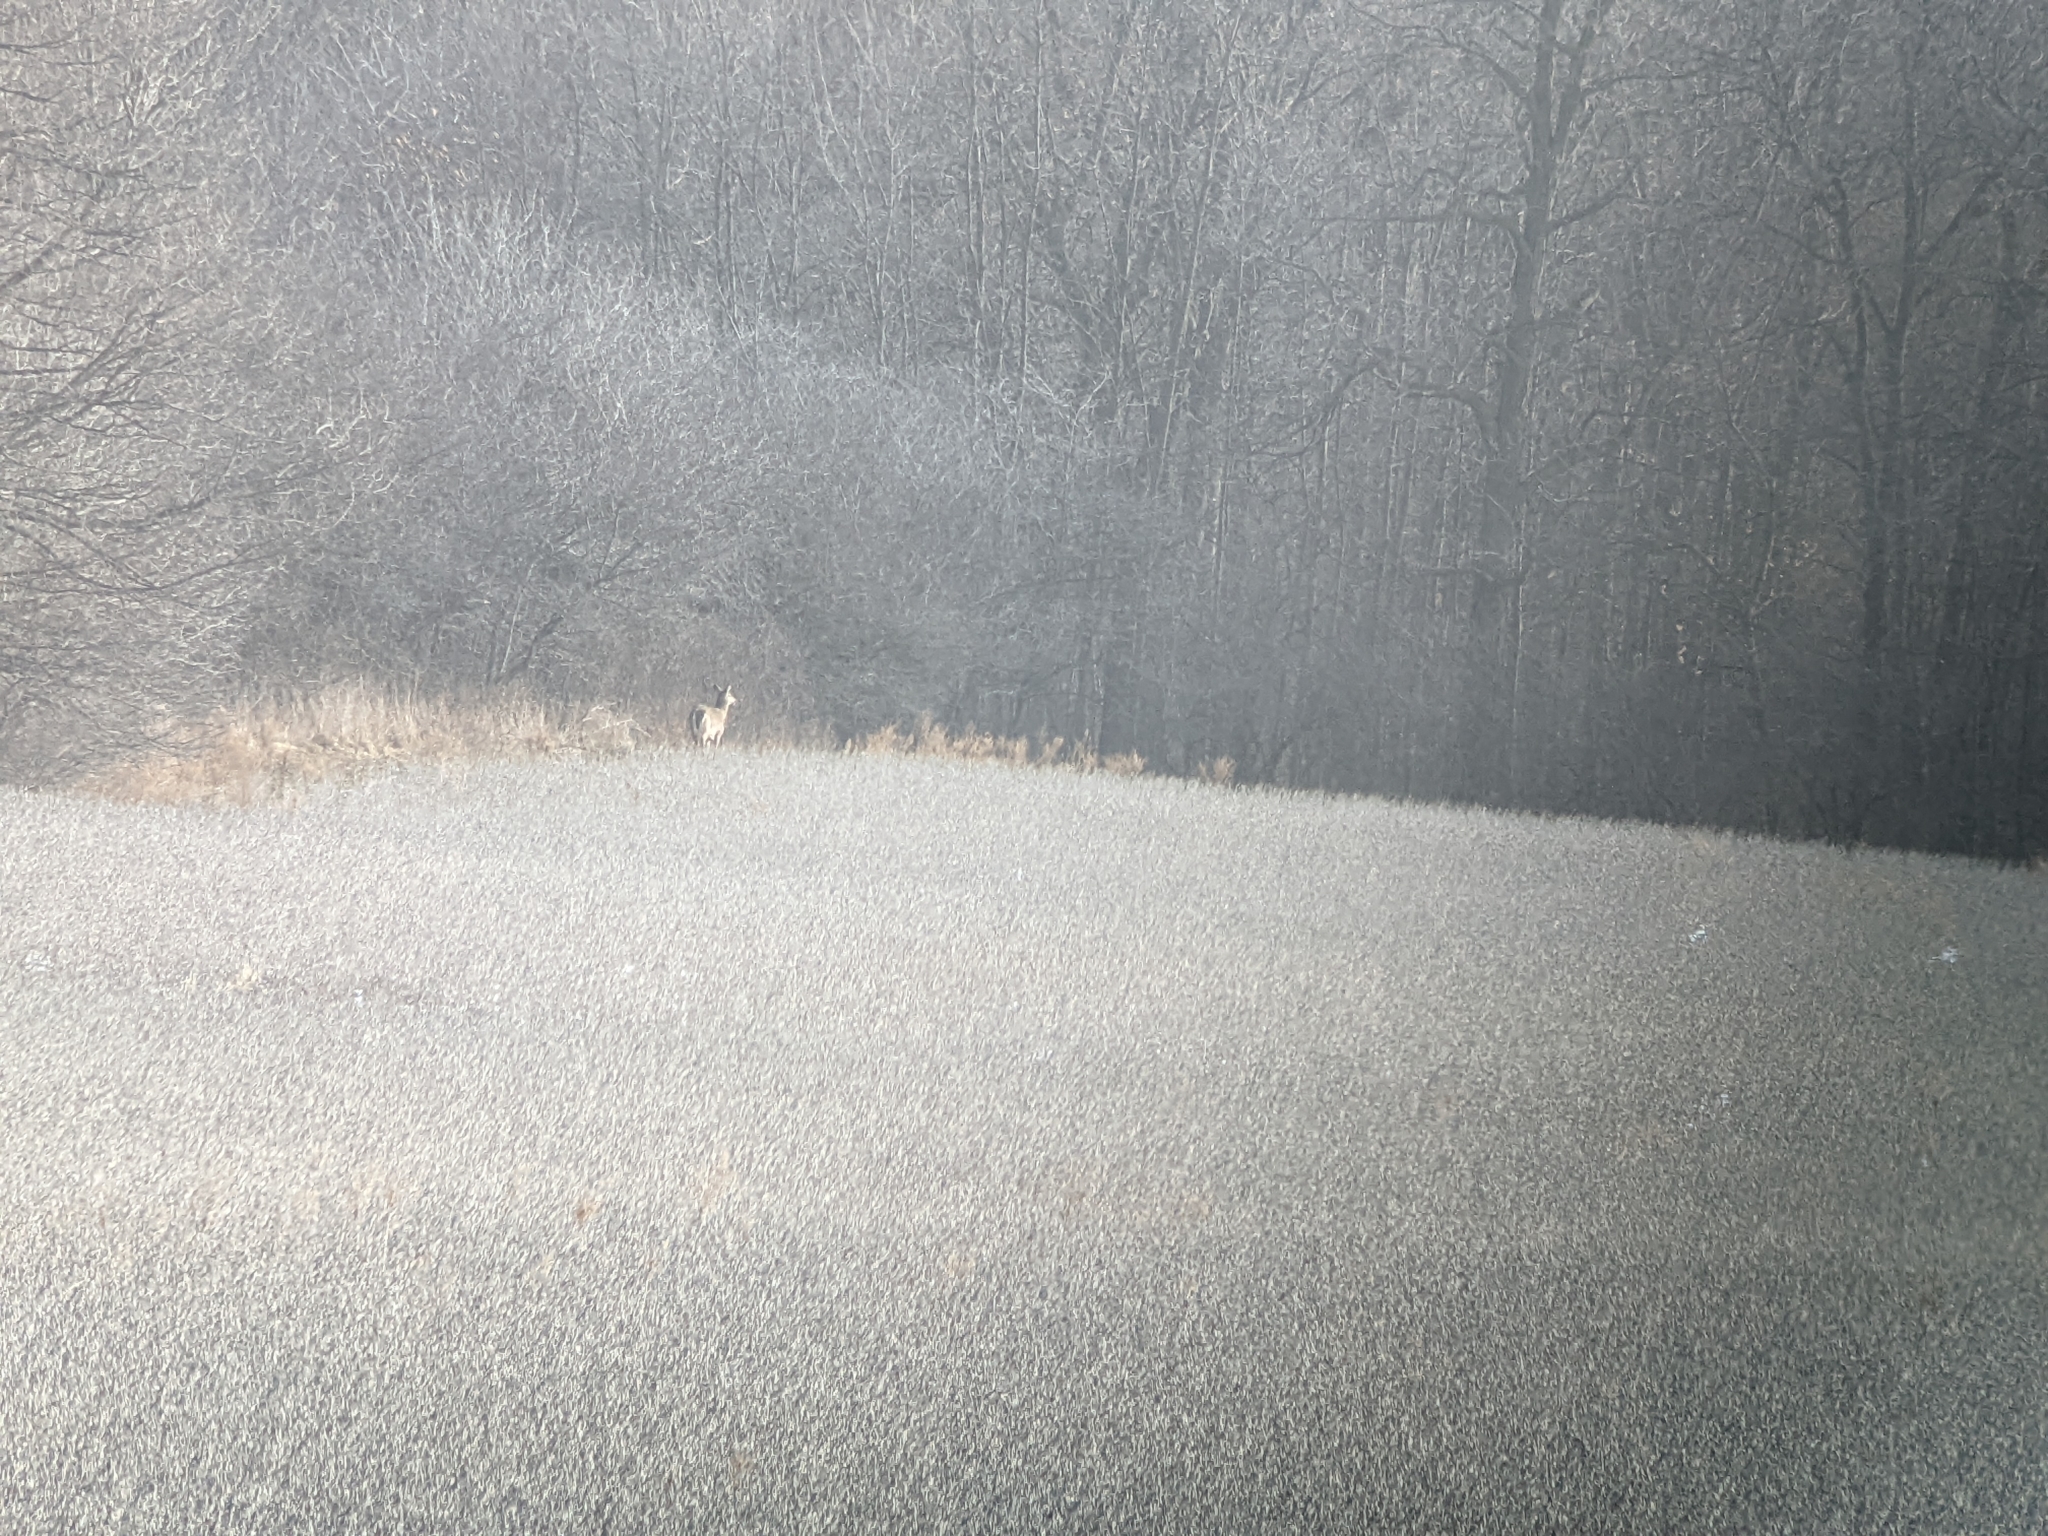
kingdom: Animalia
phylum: Chordata
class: Mammalia
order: Artiodactyla
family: Cervidae
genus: Odocoileus
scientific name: Odocoileus virginianus
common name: White-tailed deer
